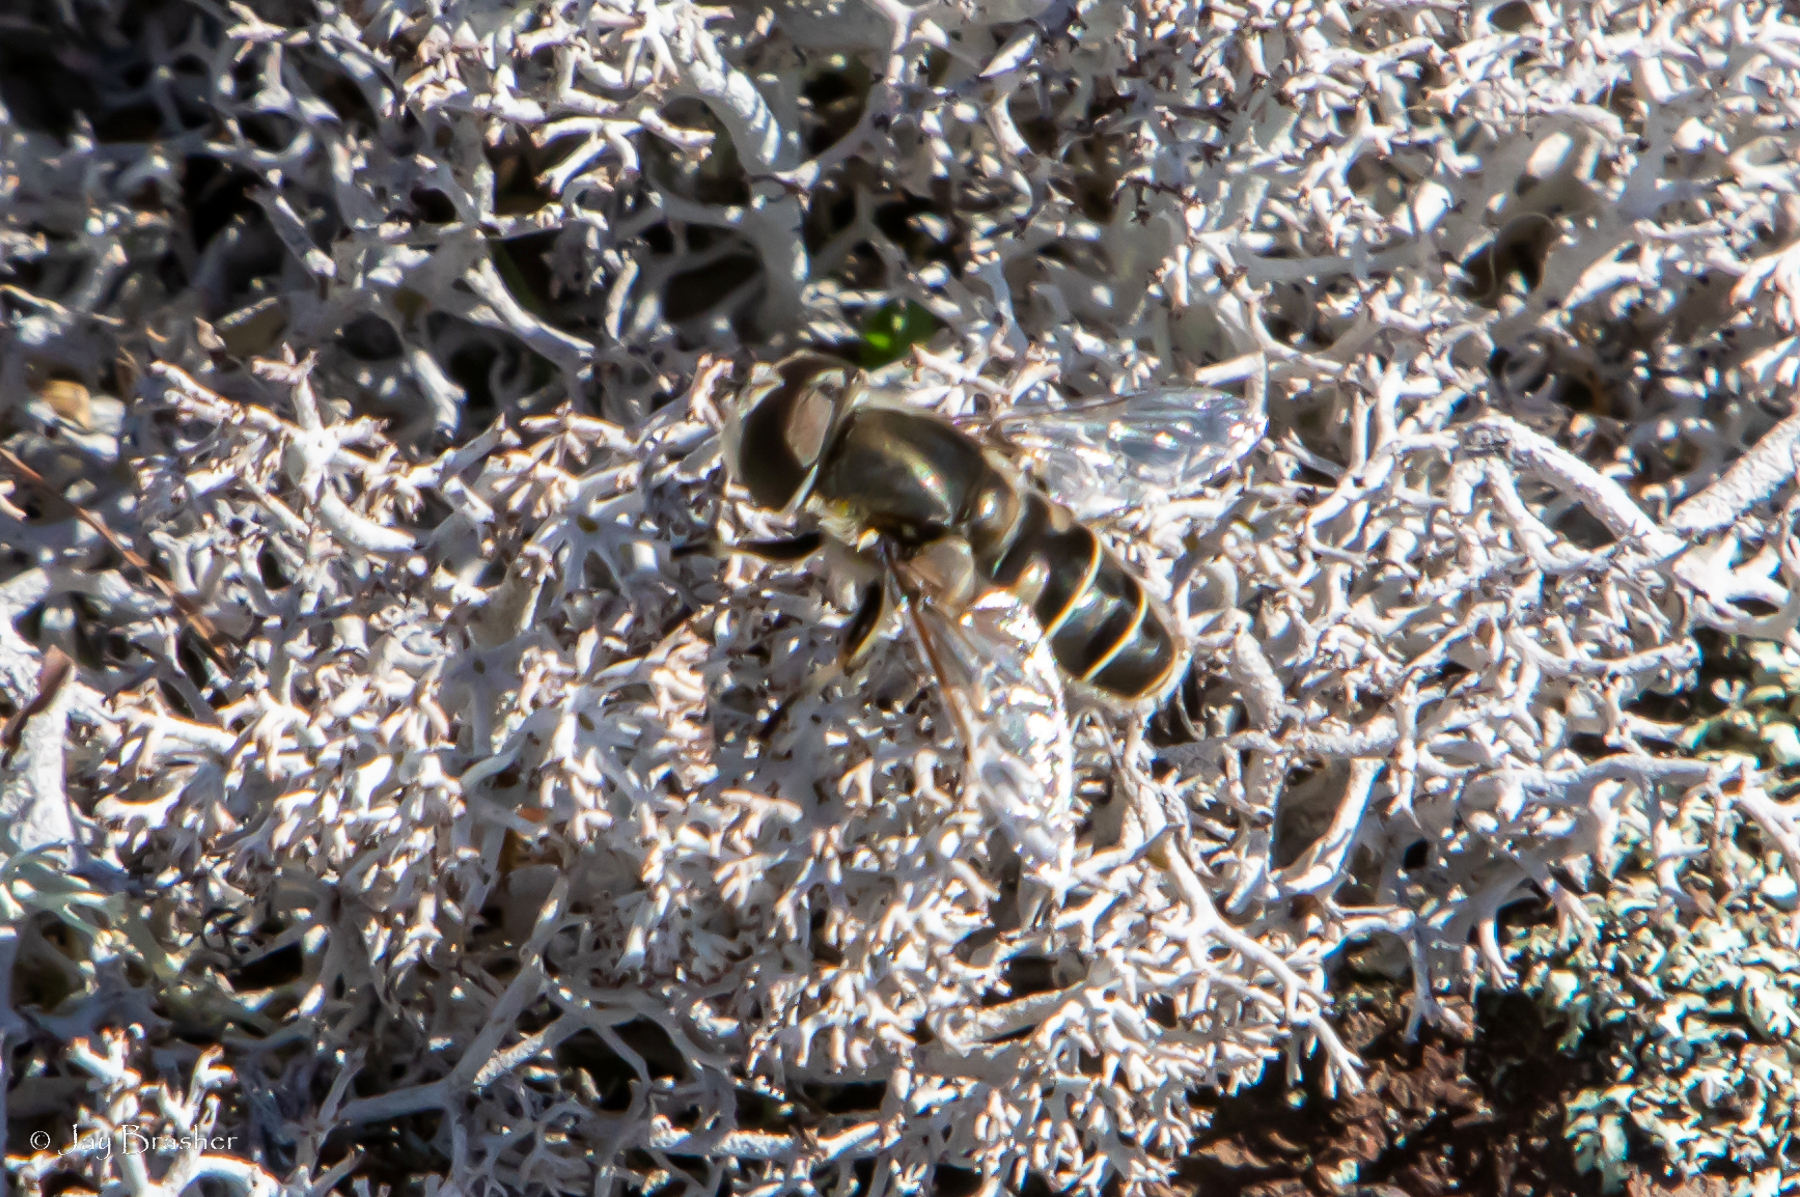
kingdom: Animalia
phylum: Arthropoda
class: Insecta
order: Diptera
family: Syrphidae
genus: Eristalis
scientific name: Eristalis dimidiata
